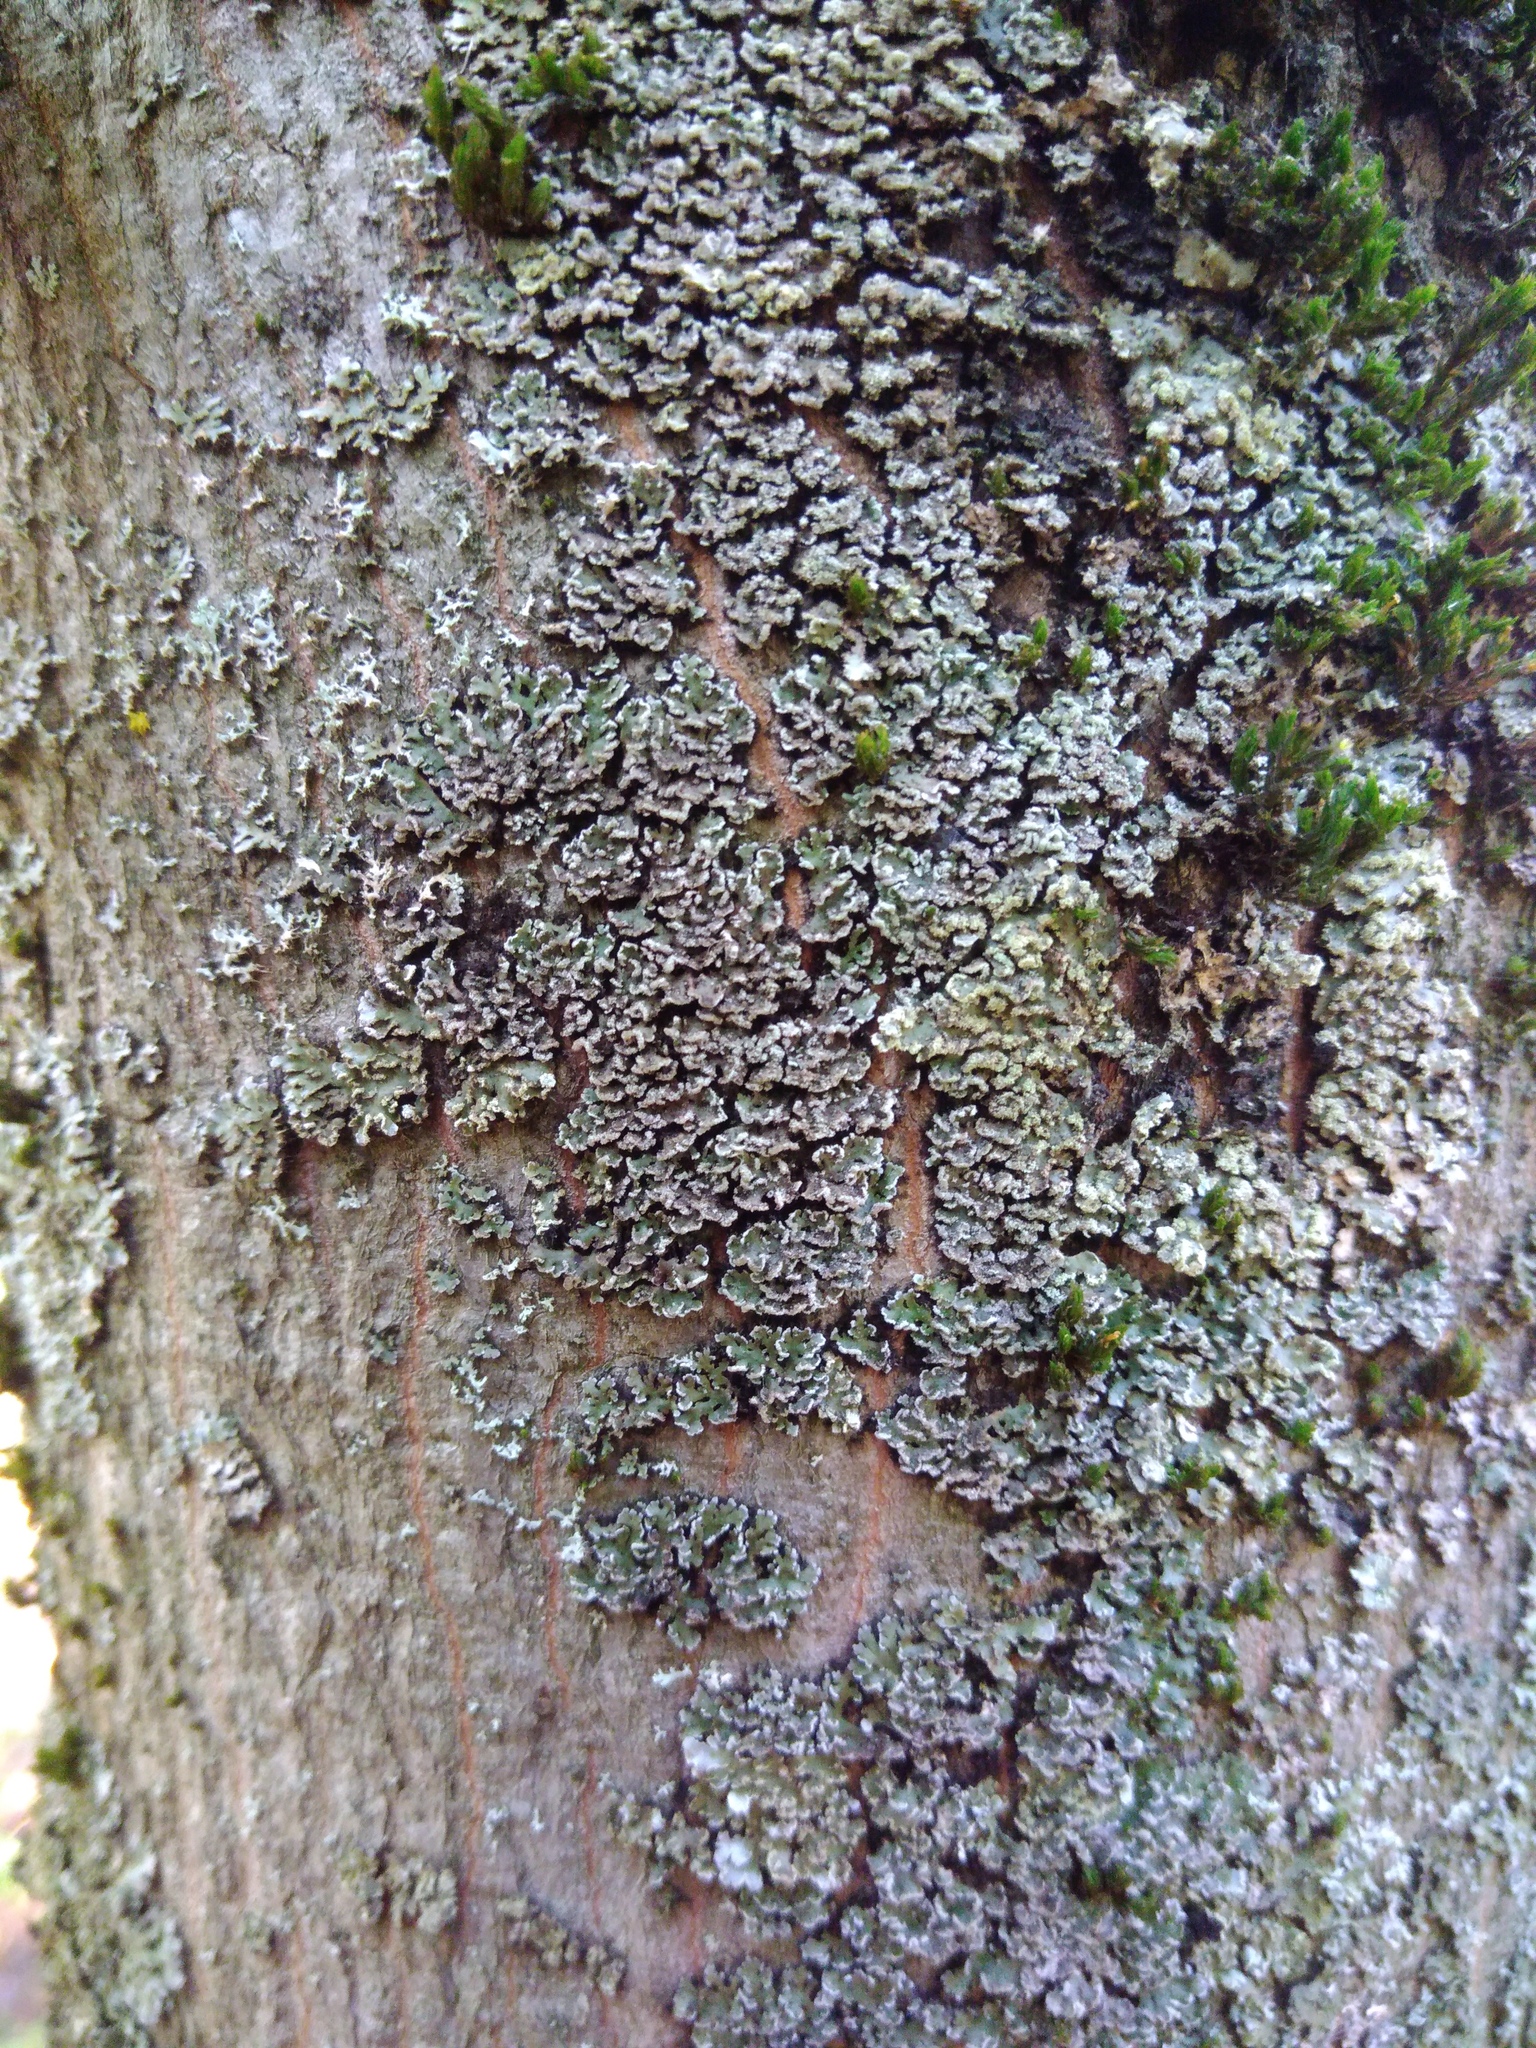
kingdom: Fungi
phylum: Ascomycota
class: Lecanoromycetes
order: Caliciales
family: Physciaceae
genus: Physconia
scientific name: Physconia perisidiosa
